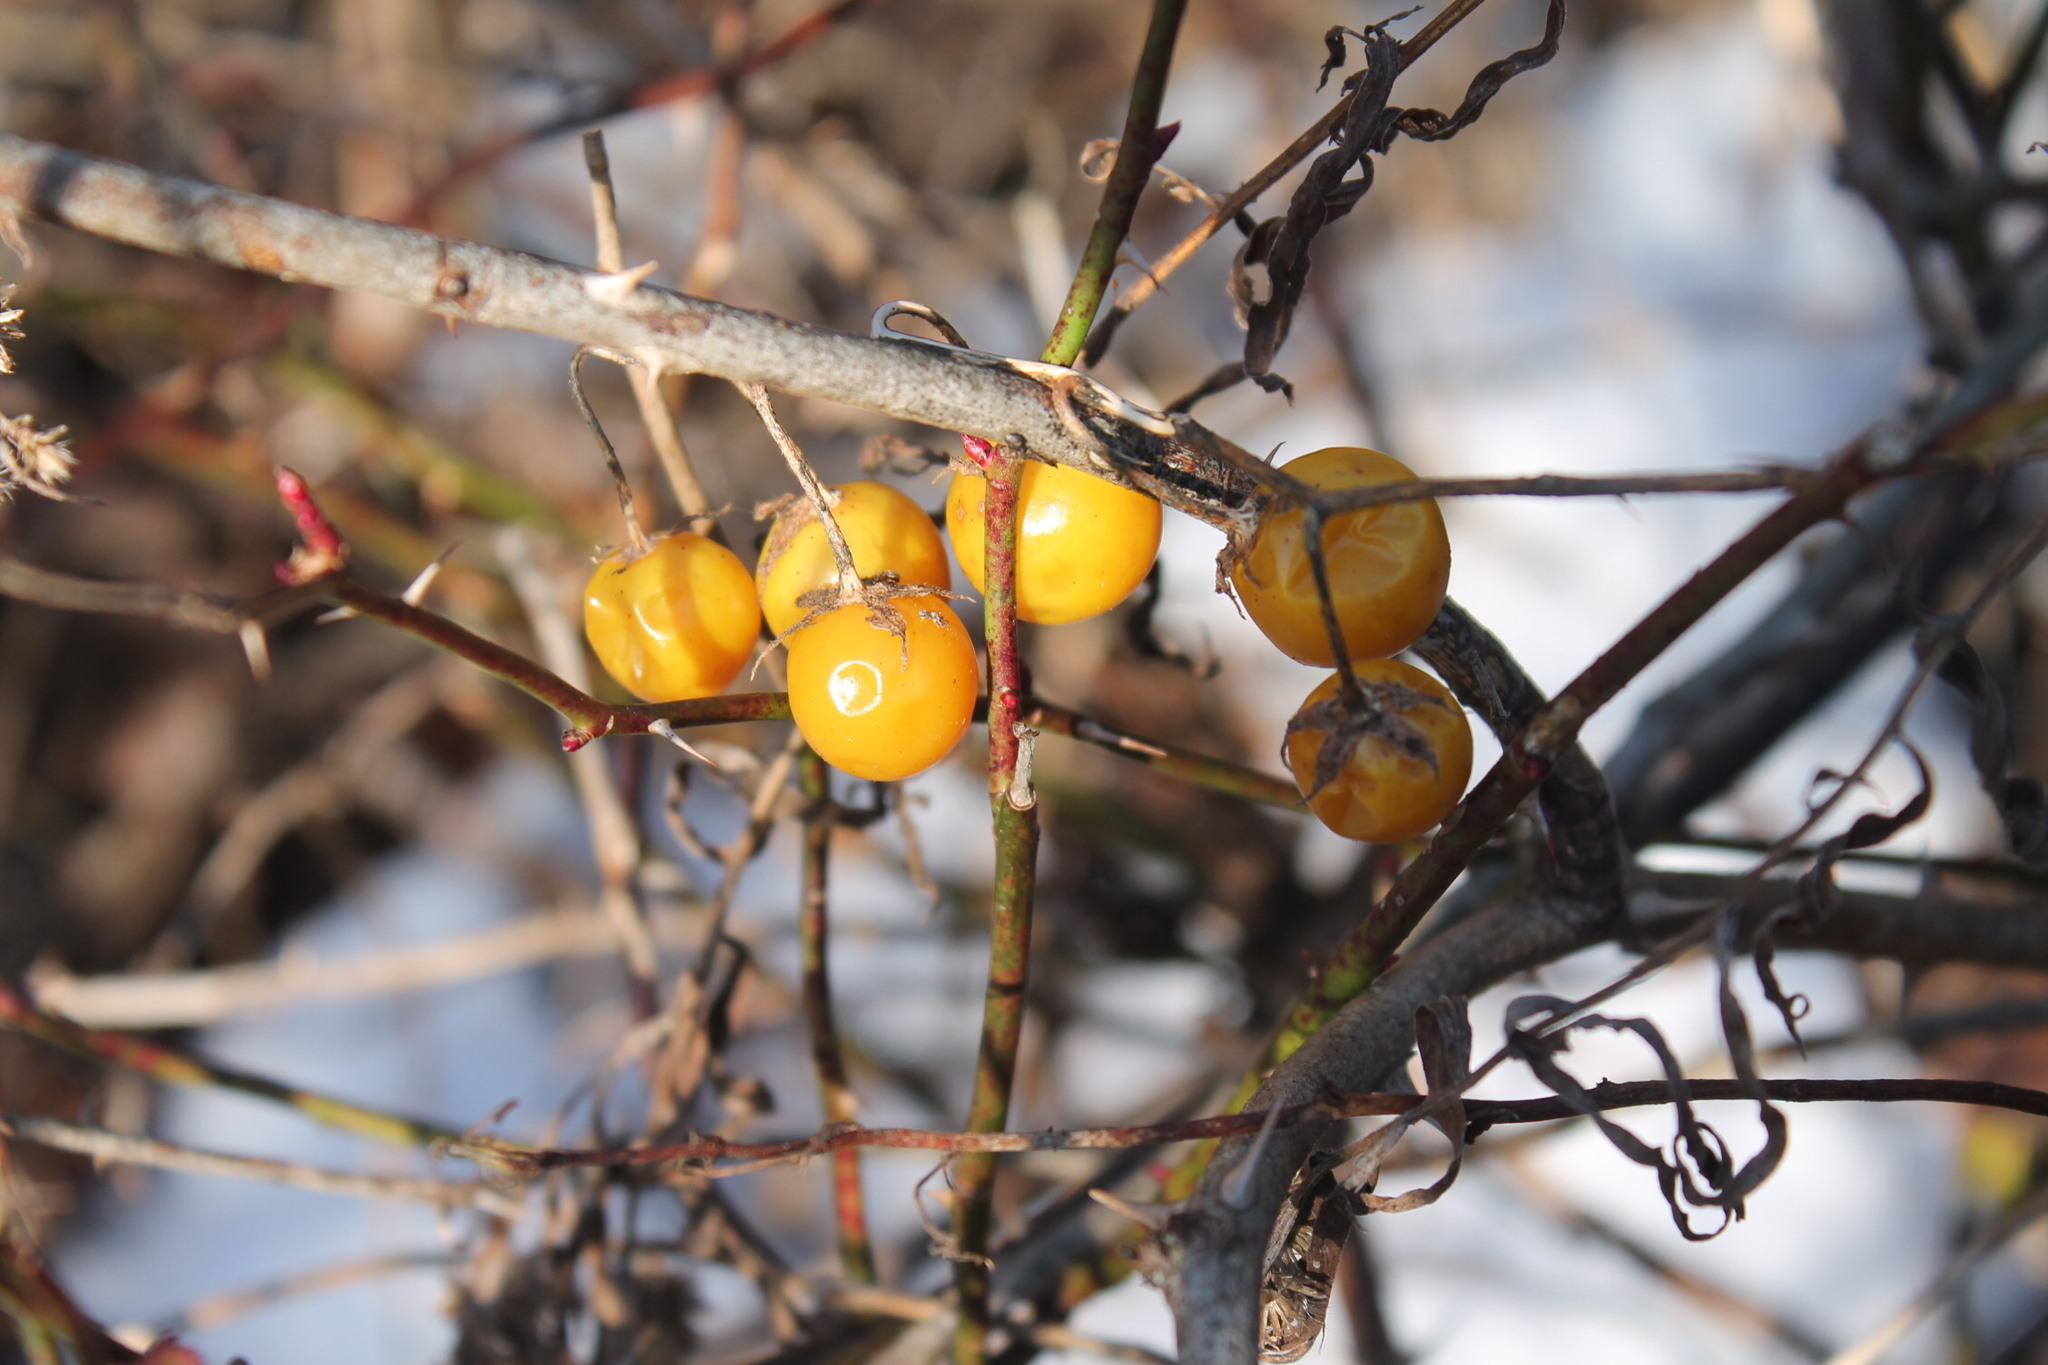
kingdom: Plantae
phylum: Tracheophyta
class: Magnoliopsida
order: Solanales
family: Solanaceae
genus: Solanum
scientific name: Solanum carolinense
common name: Horse-nettle
